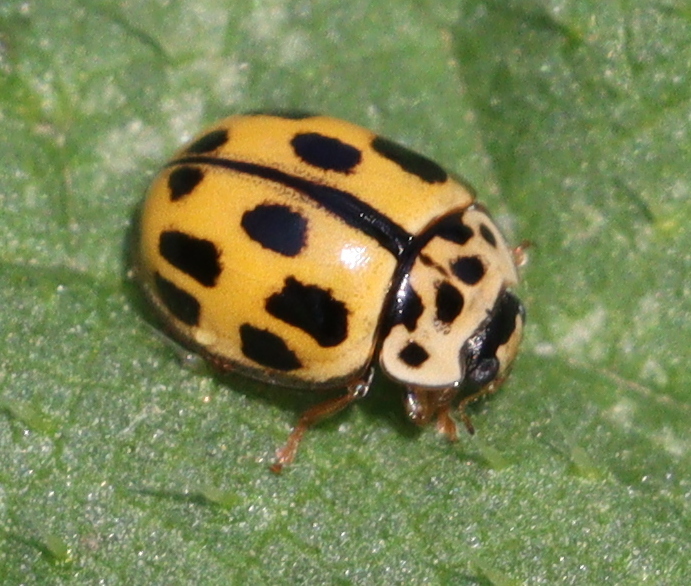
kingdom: Animalia
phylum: Arthropoda
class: Insecta
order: Coleoptera
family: Coccinellidae
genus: Propylaea
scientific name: Propylaea quatuordecimpunctata
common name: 14-spotted ladybird beetle
